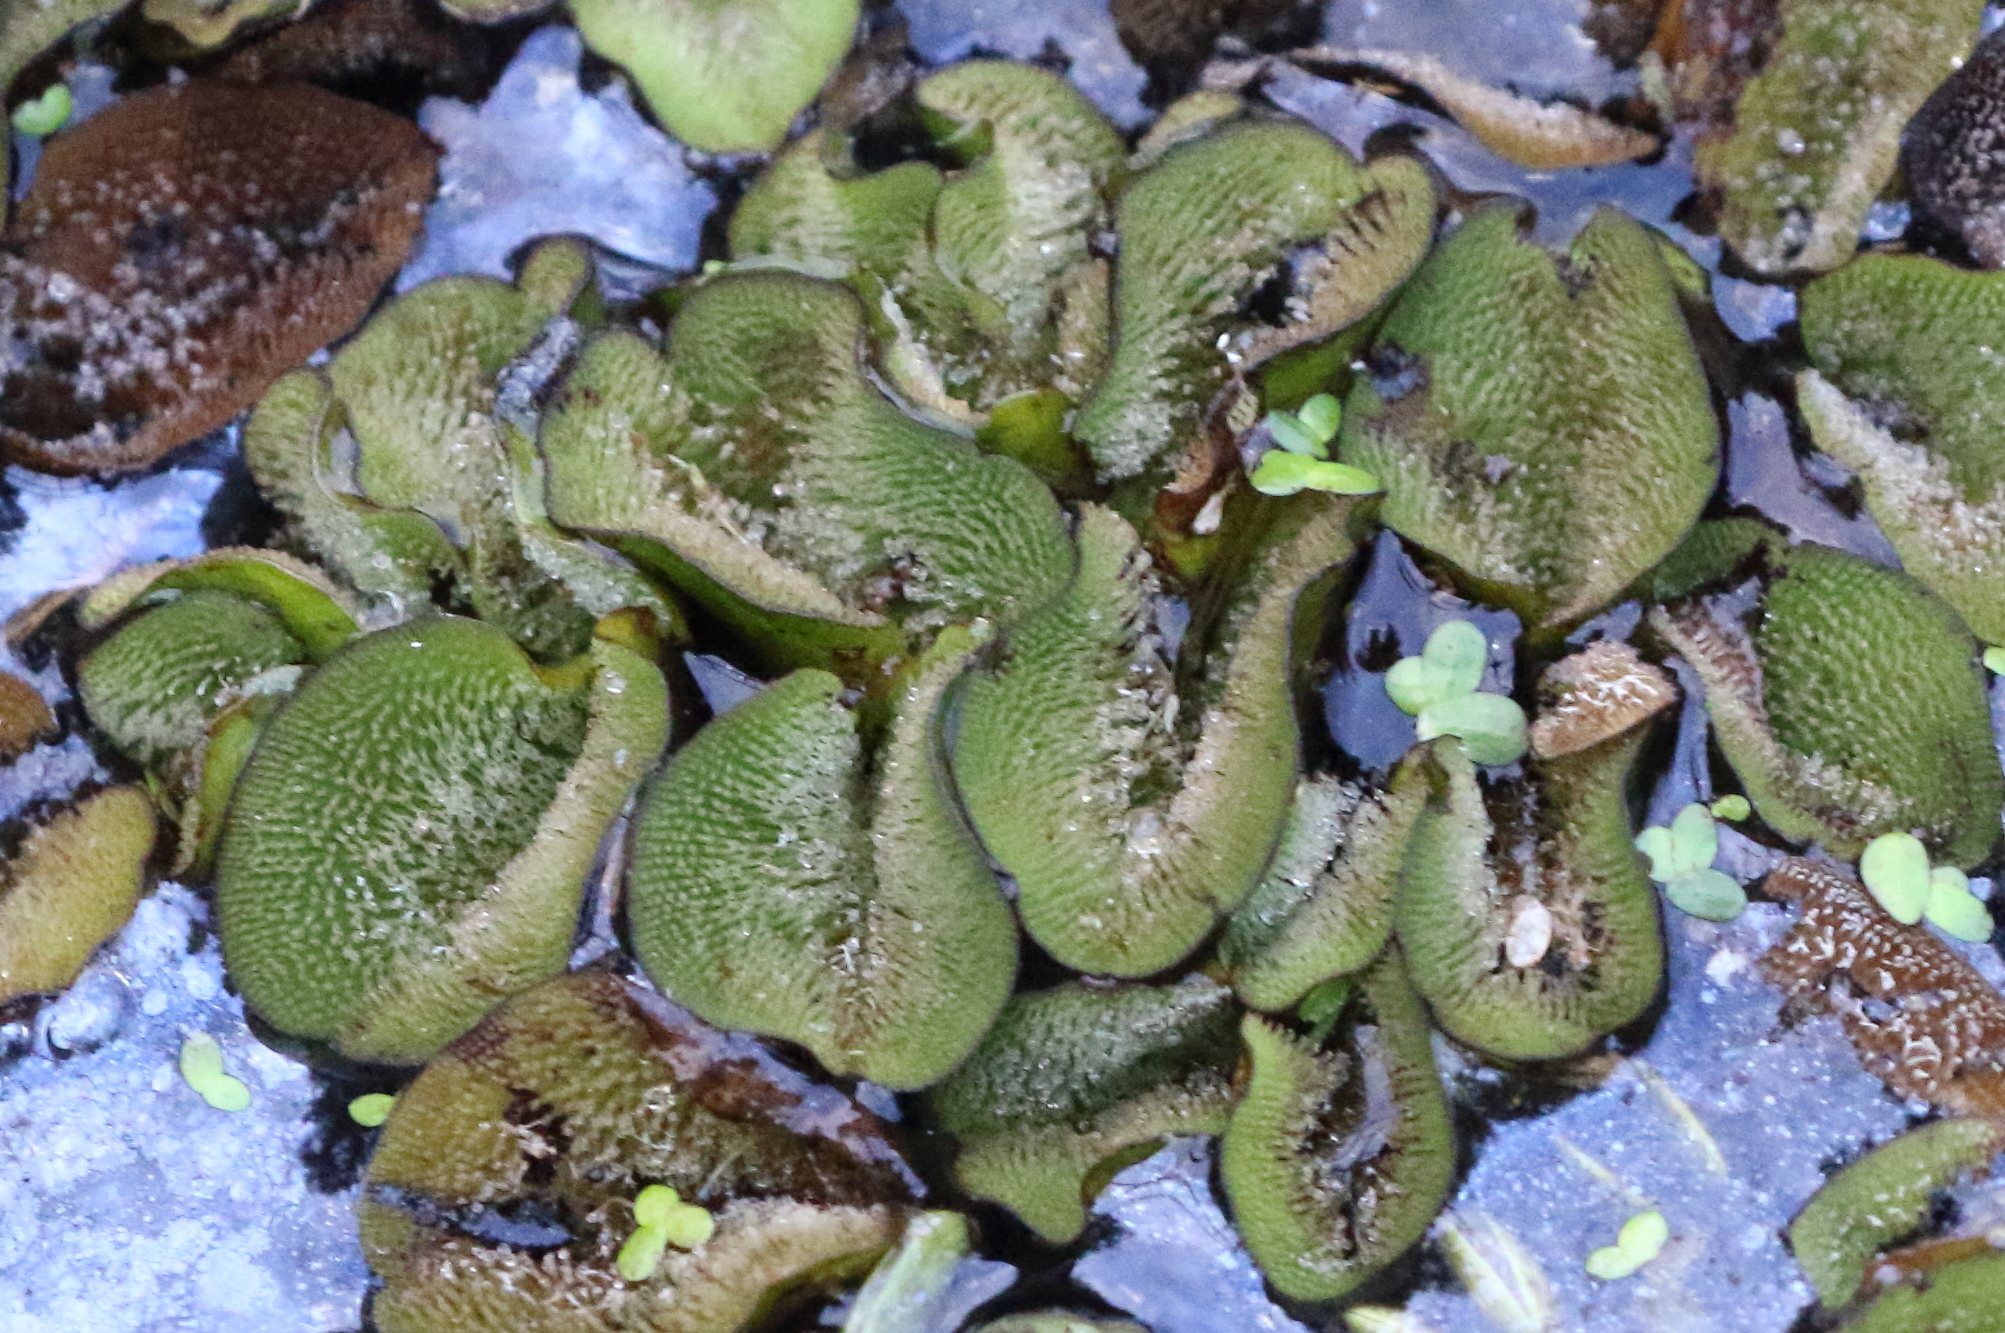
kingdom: Plantae
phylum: Tracheophyta
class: Polypodiopsida
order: Salviniales
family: Salviniaceae
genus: Salvinia
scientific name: Salvinia molesta
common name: Kariba weed
